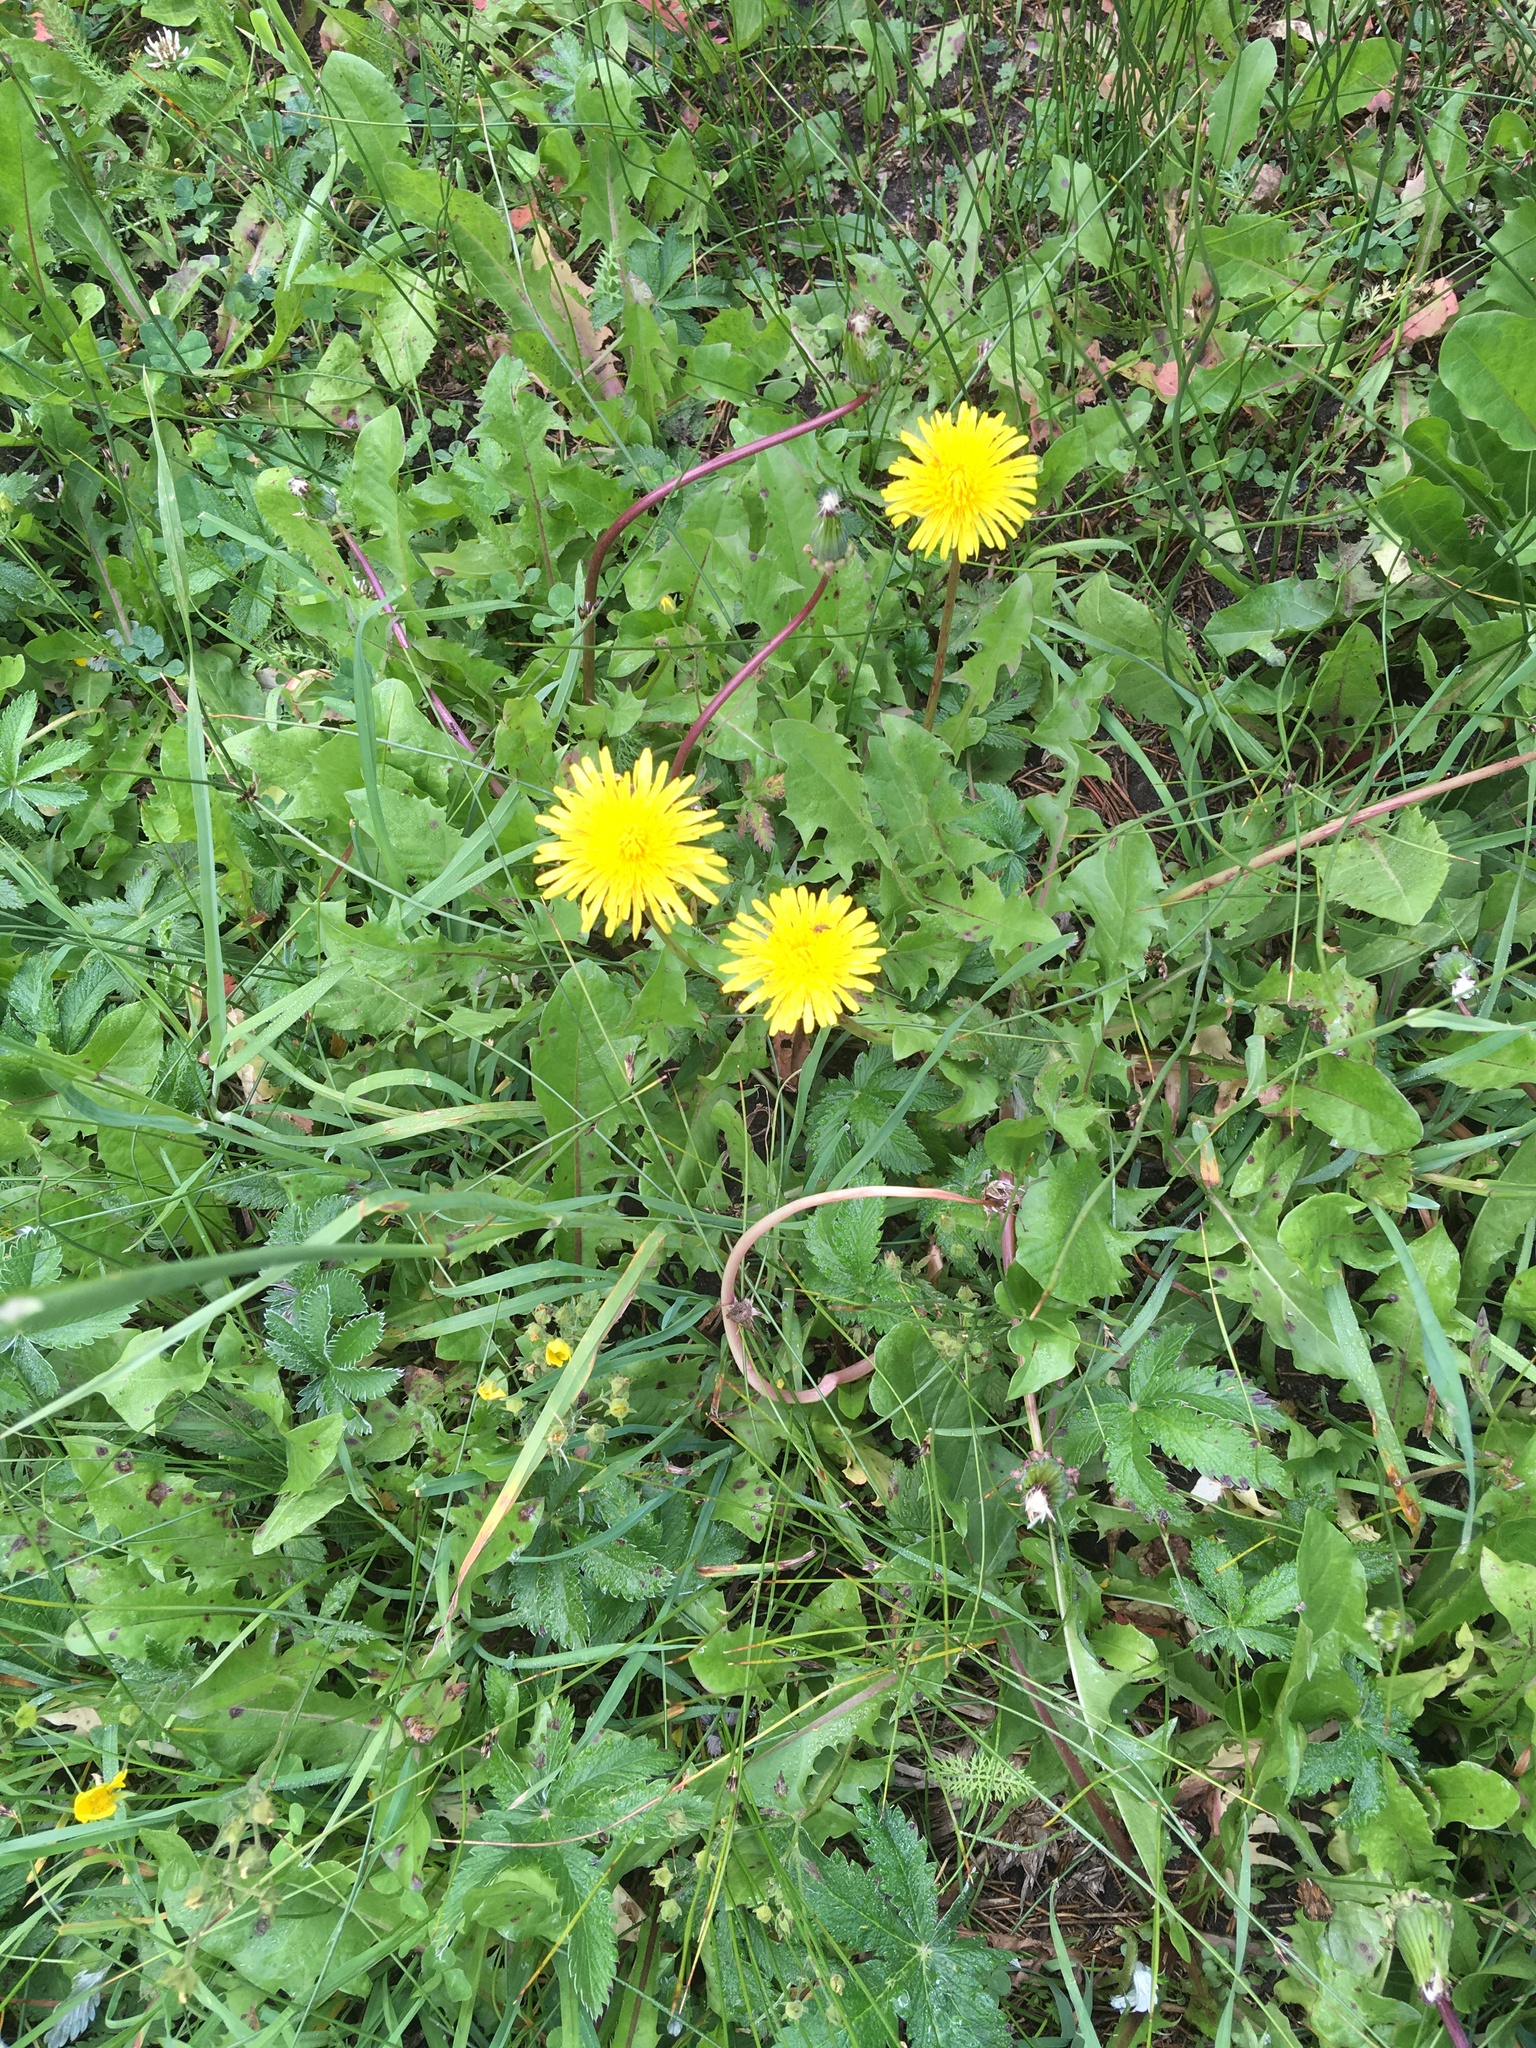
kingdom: Plantae
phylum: Tracheophyta
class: Magnoliopsida
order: Asterales
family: Asteraceae
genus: Taraxacum
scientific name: Taraxacum officinale
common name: Common dandelion
